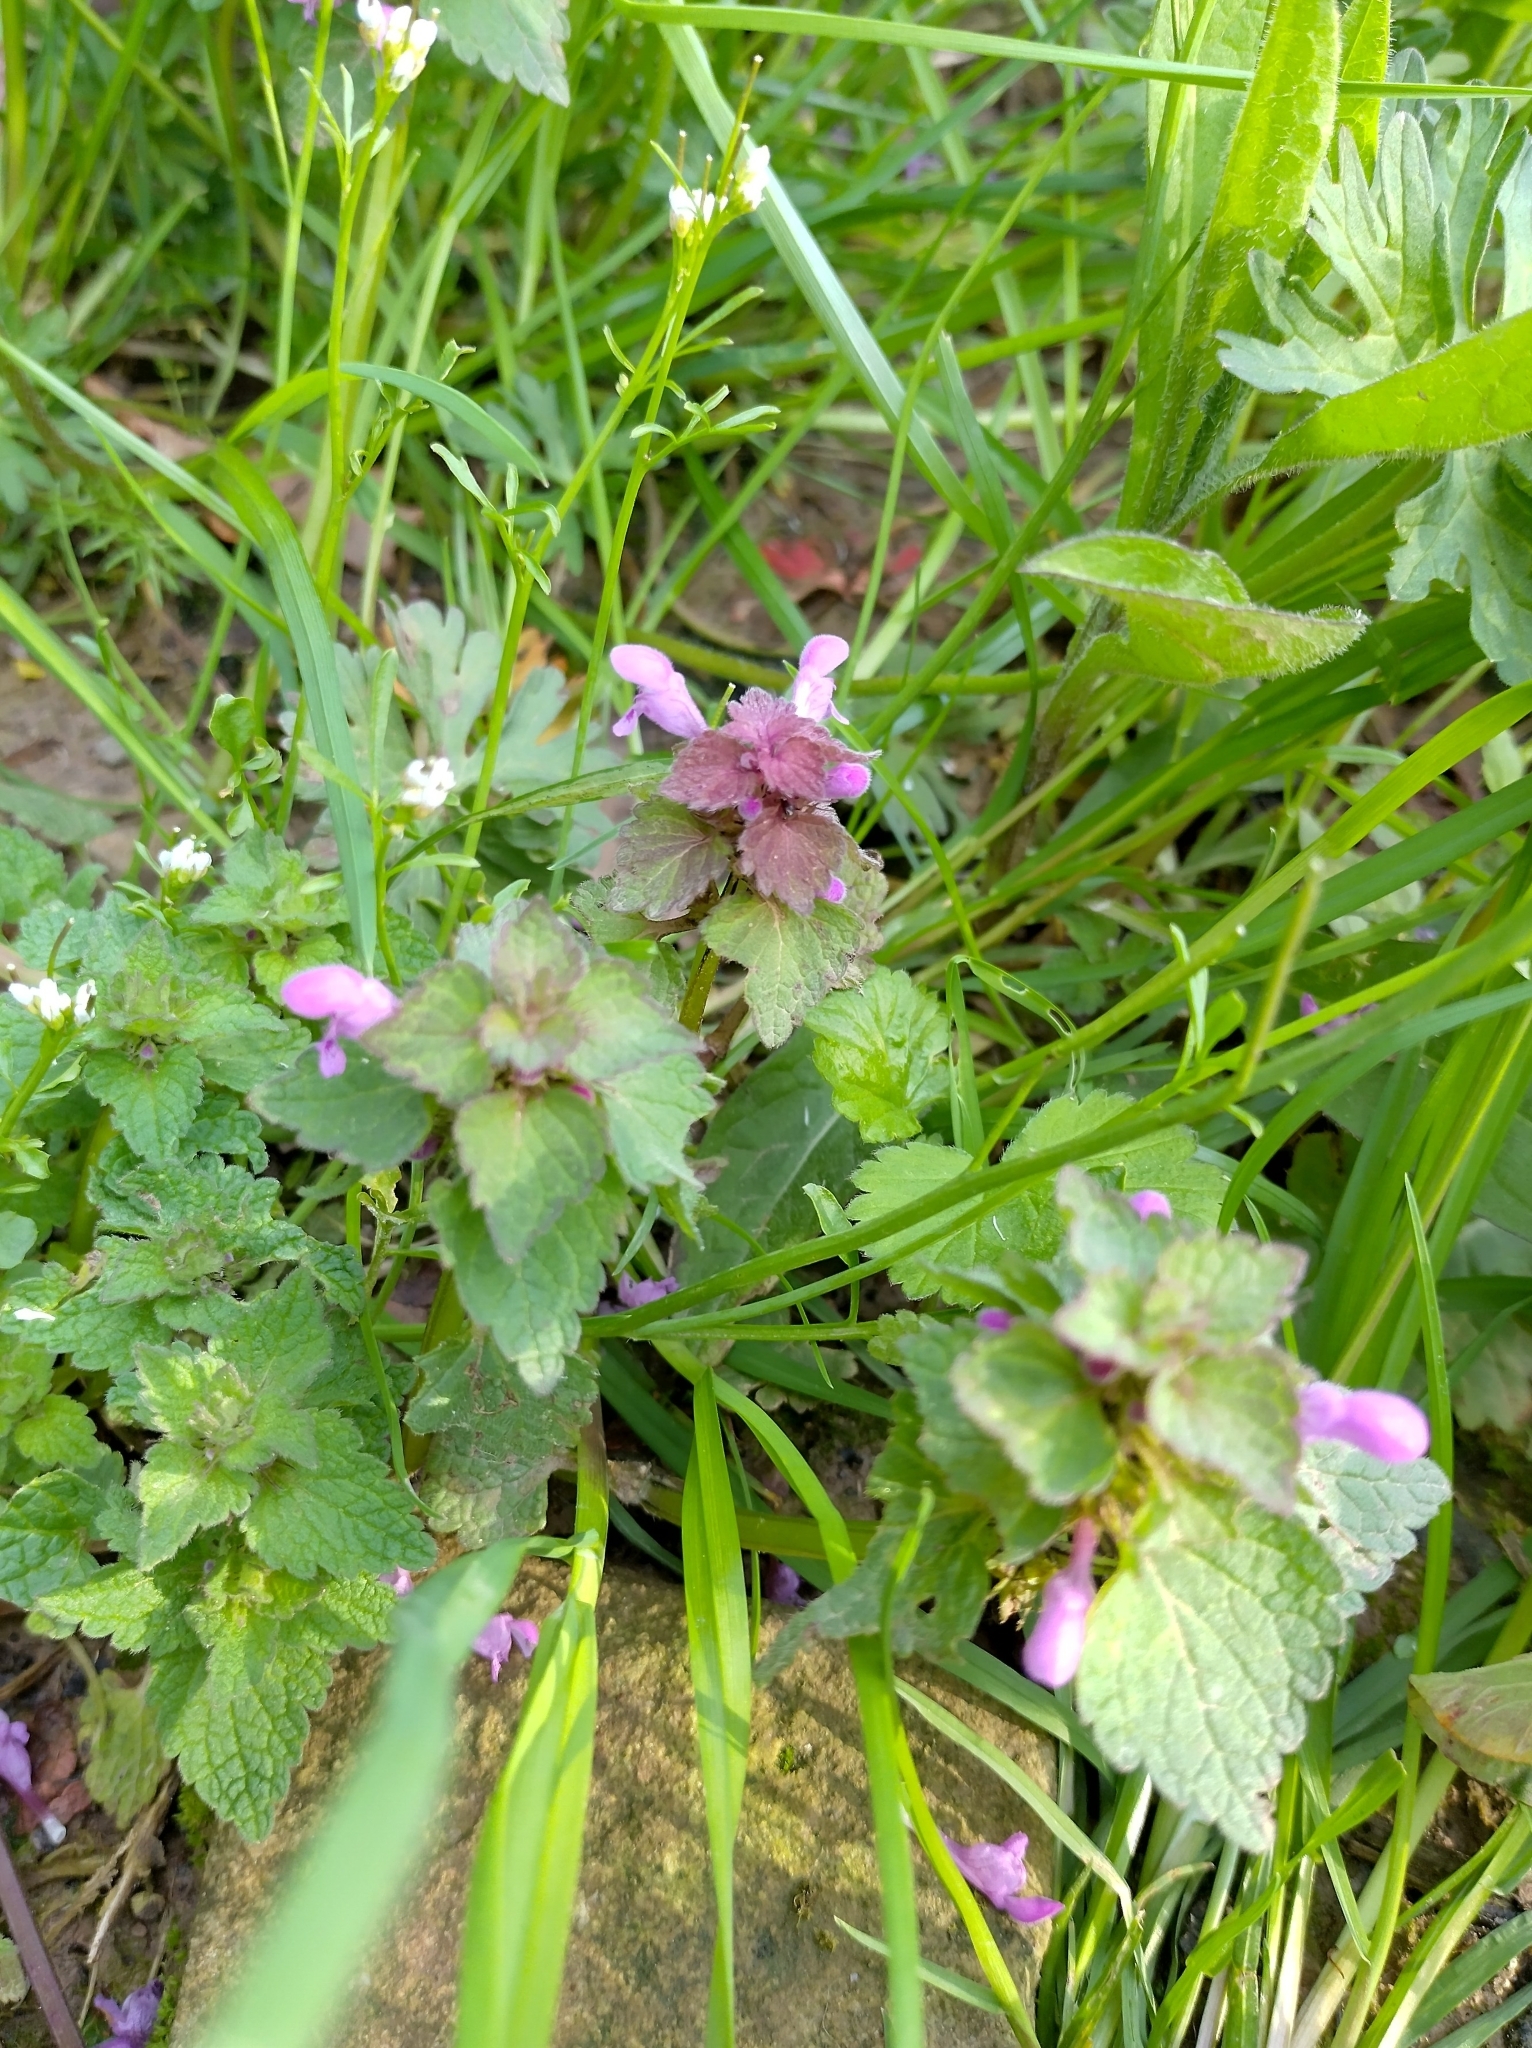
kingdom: Plantae
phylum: Tracheophyta
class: Magnoliopsida
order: Lamiales
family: Lamiaceae
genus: Lamium
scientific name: Lamium purpureum
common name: Red dead-nettle
